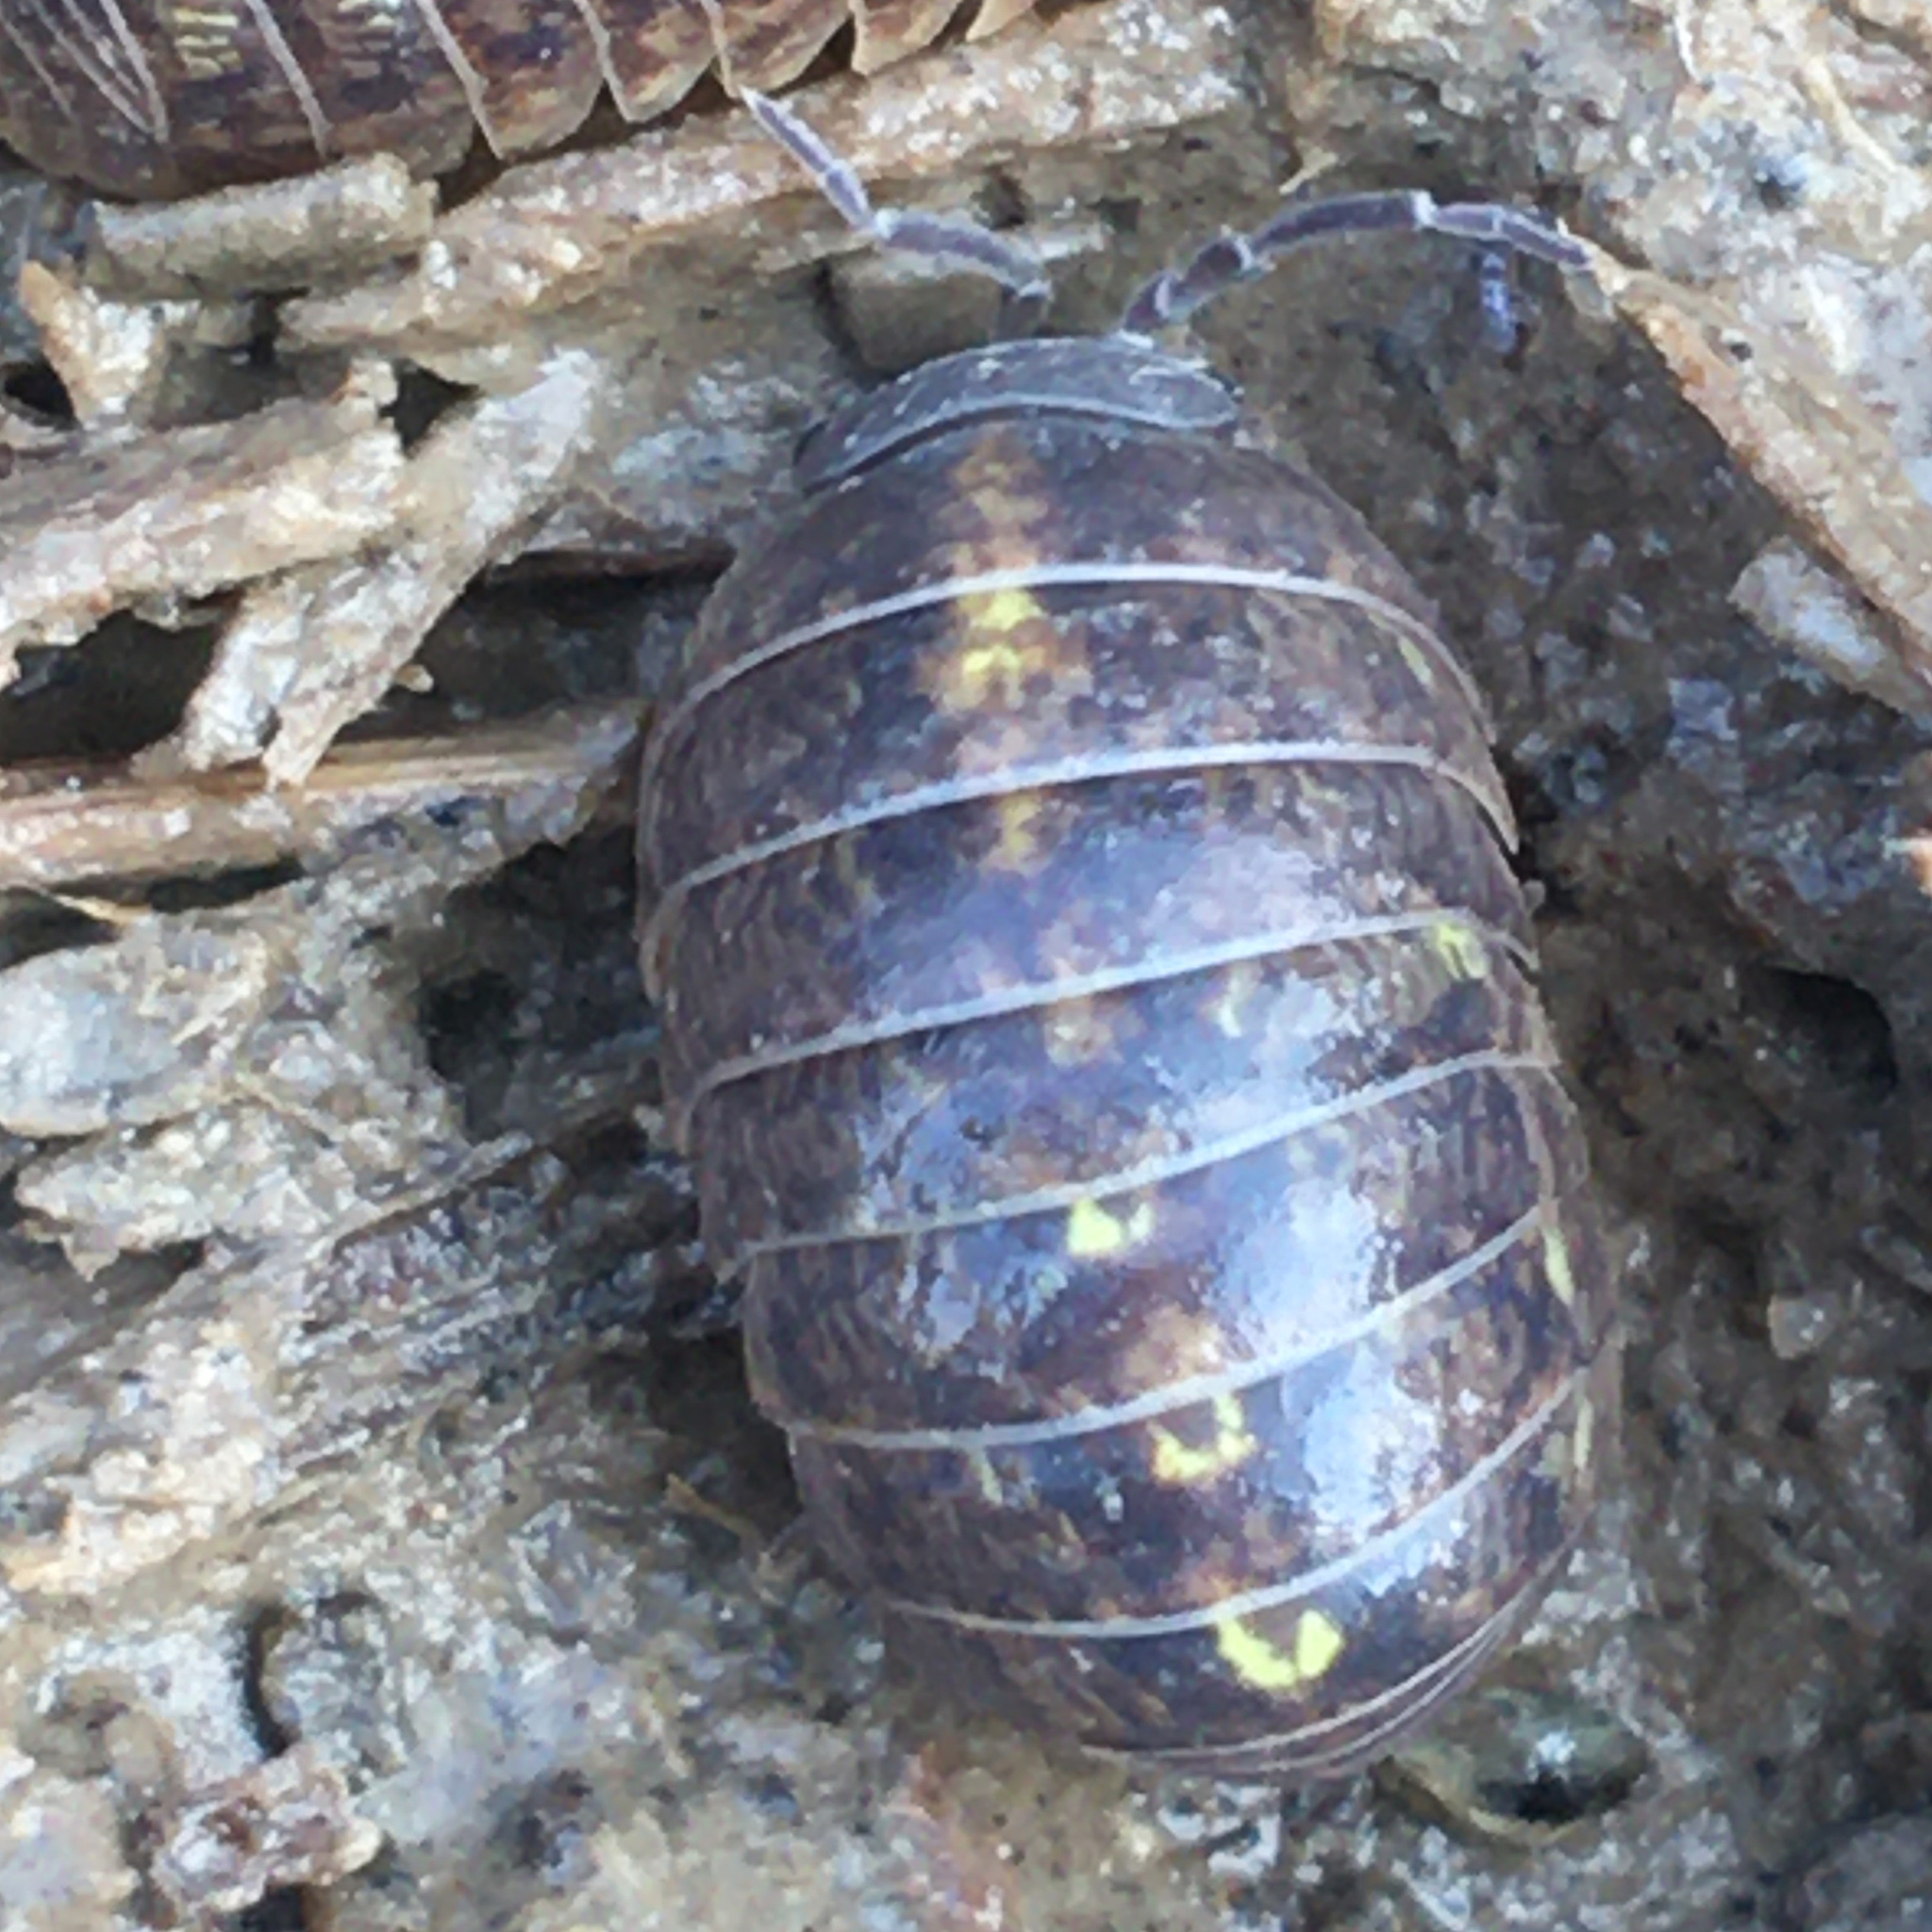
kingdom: Animalia
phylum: Arthropoda
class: Malacostraca
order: Isopoda
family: Armadillidiidae
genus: Armadillidium
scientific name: Armadillidium vulgare
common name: Common pill woodlouse
